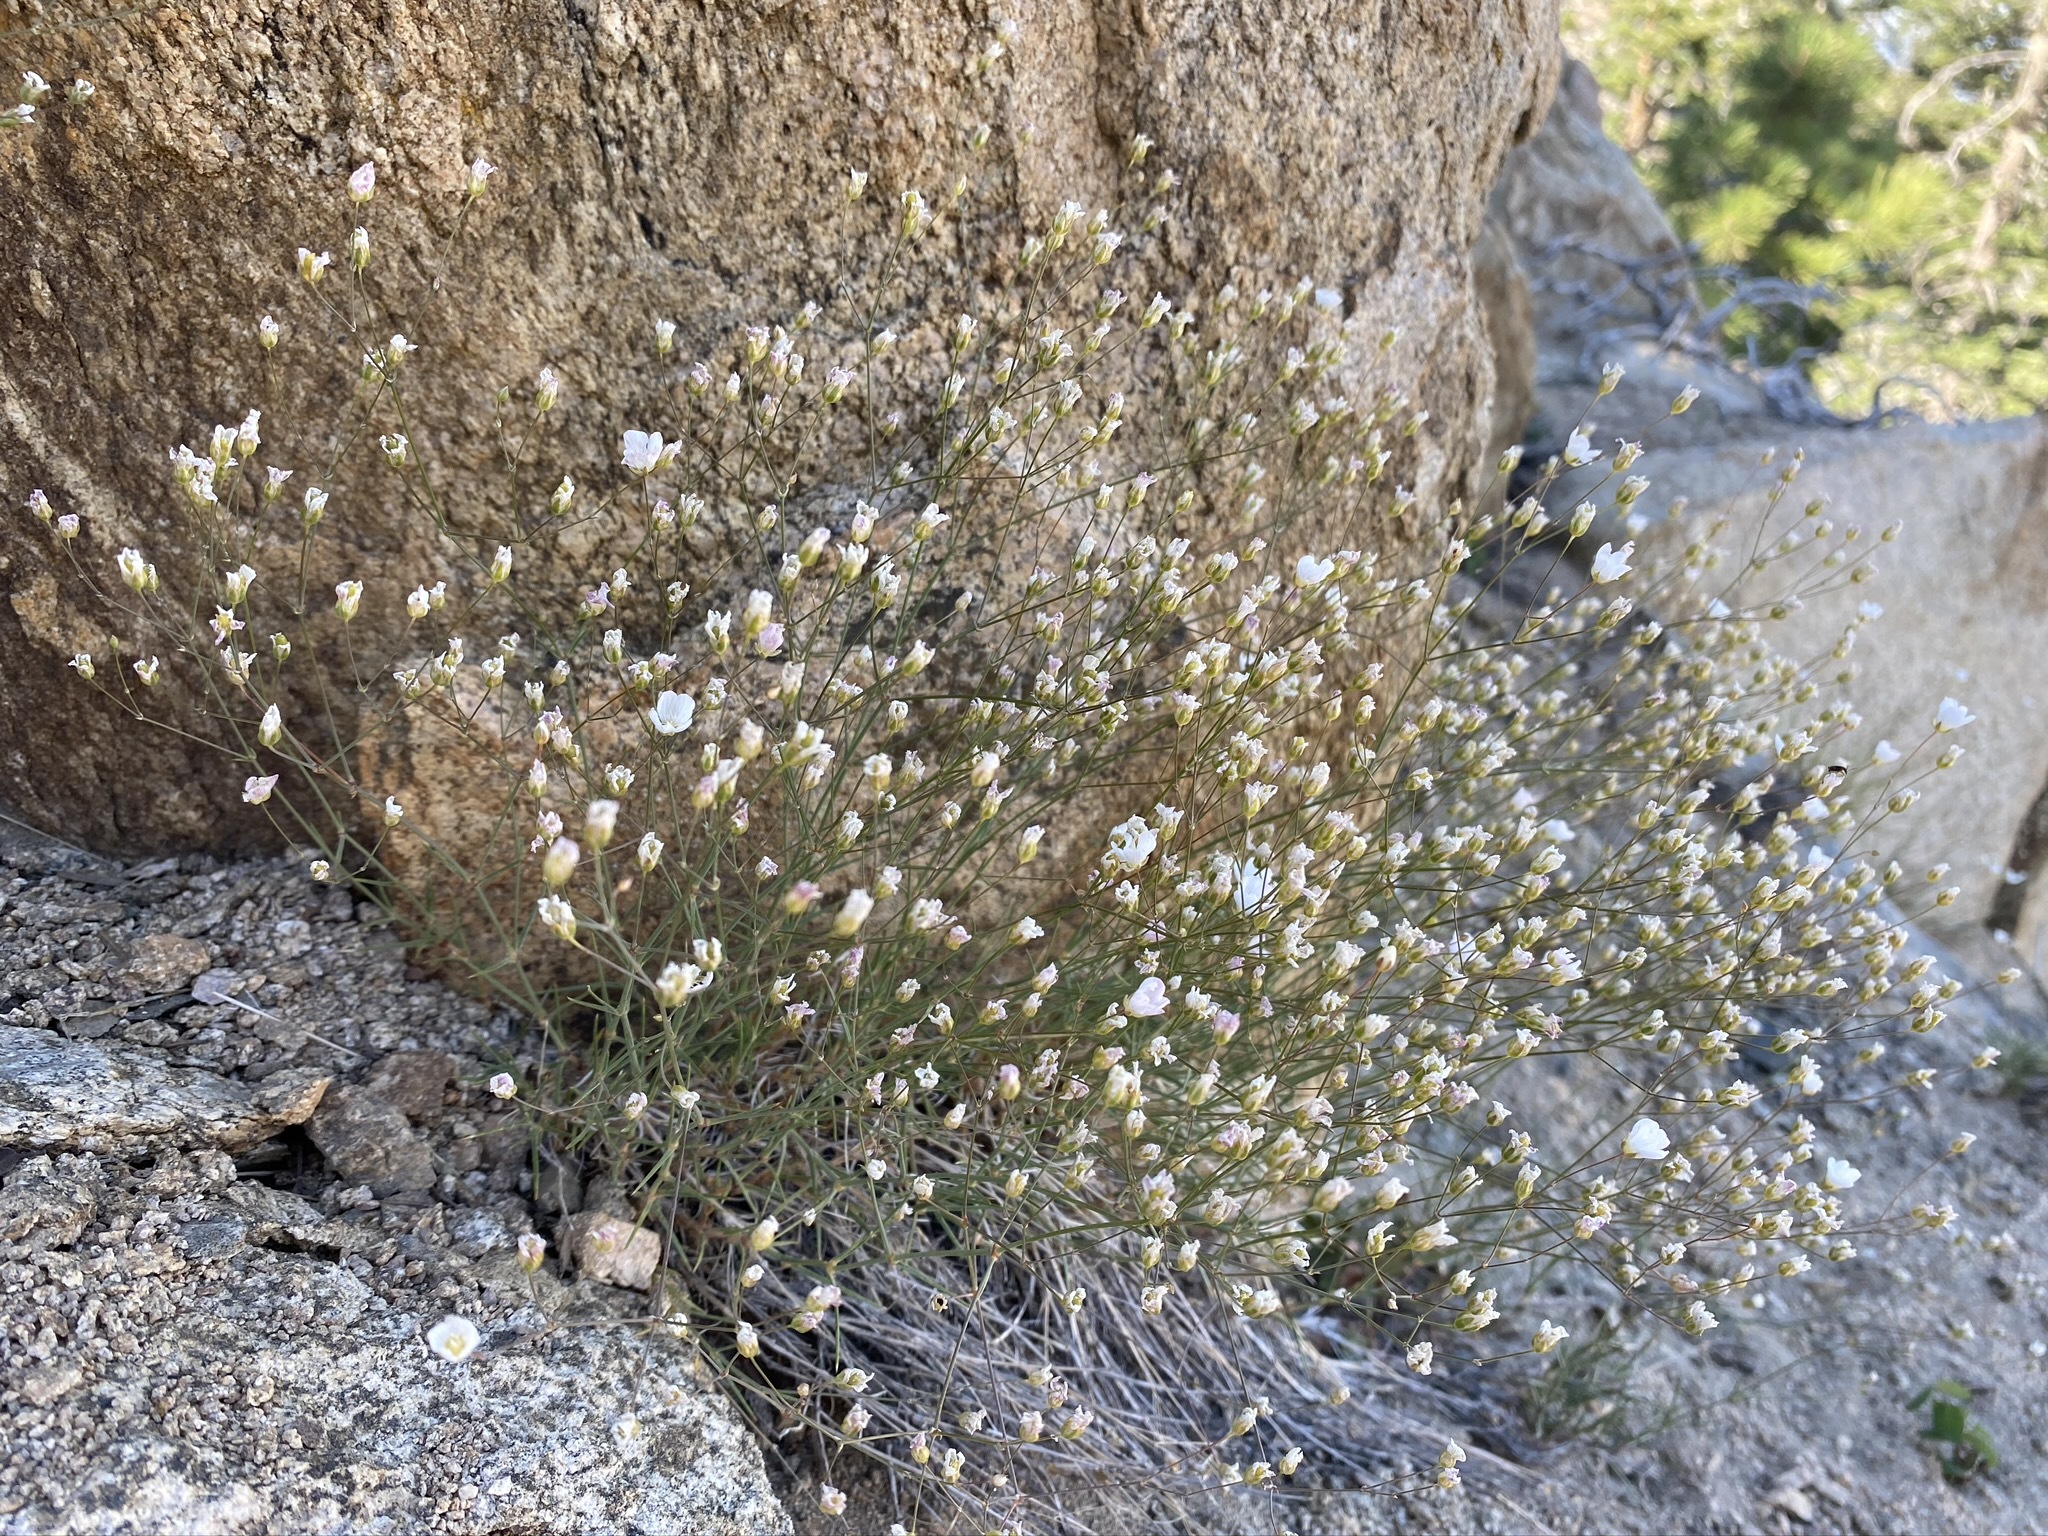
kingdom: Plantae
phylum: Tracheophyta
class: Magnoliopsida
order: Caryophyllales
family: Caryophyllaceae
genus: Eremogone
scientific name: Eremogone ferrisiae
